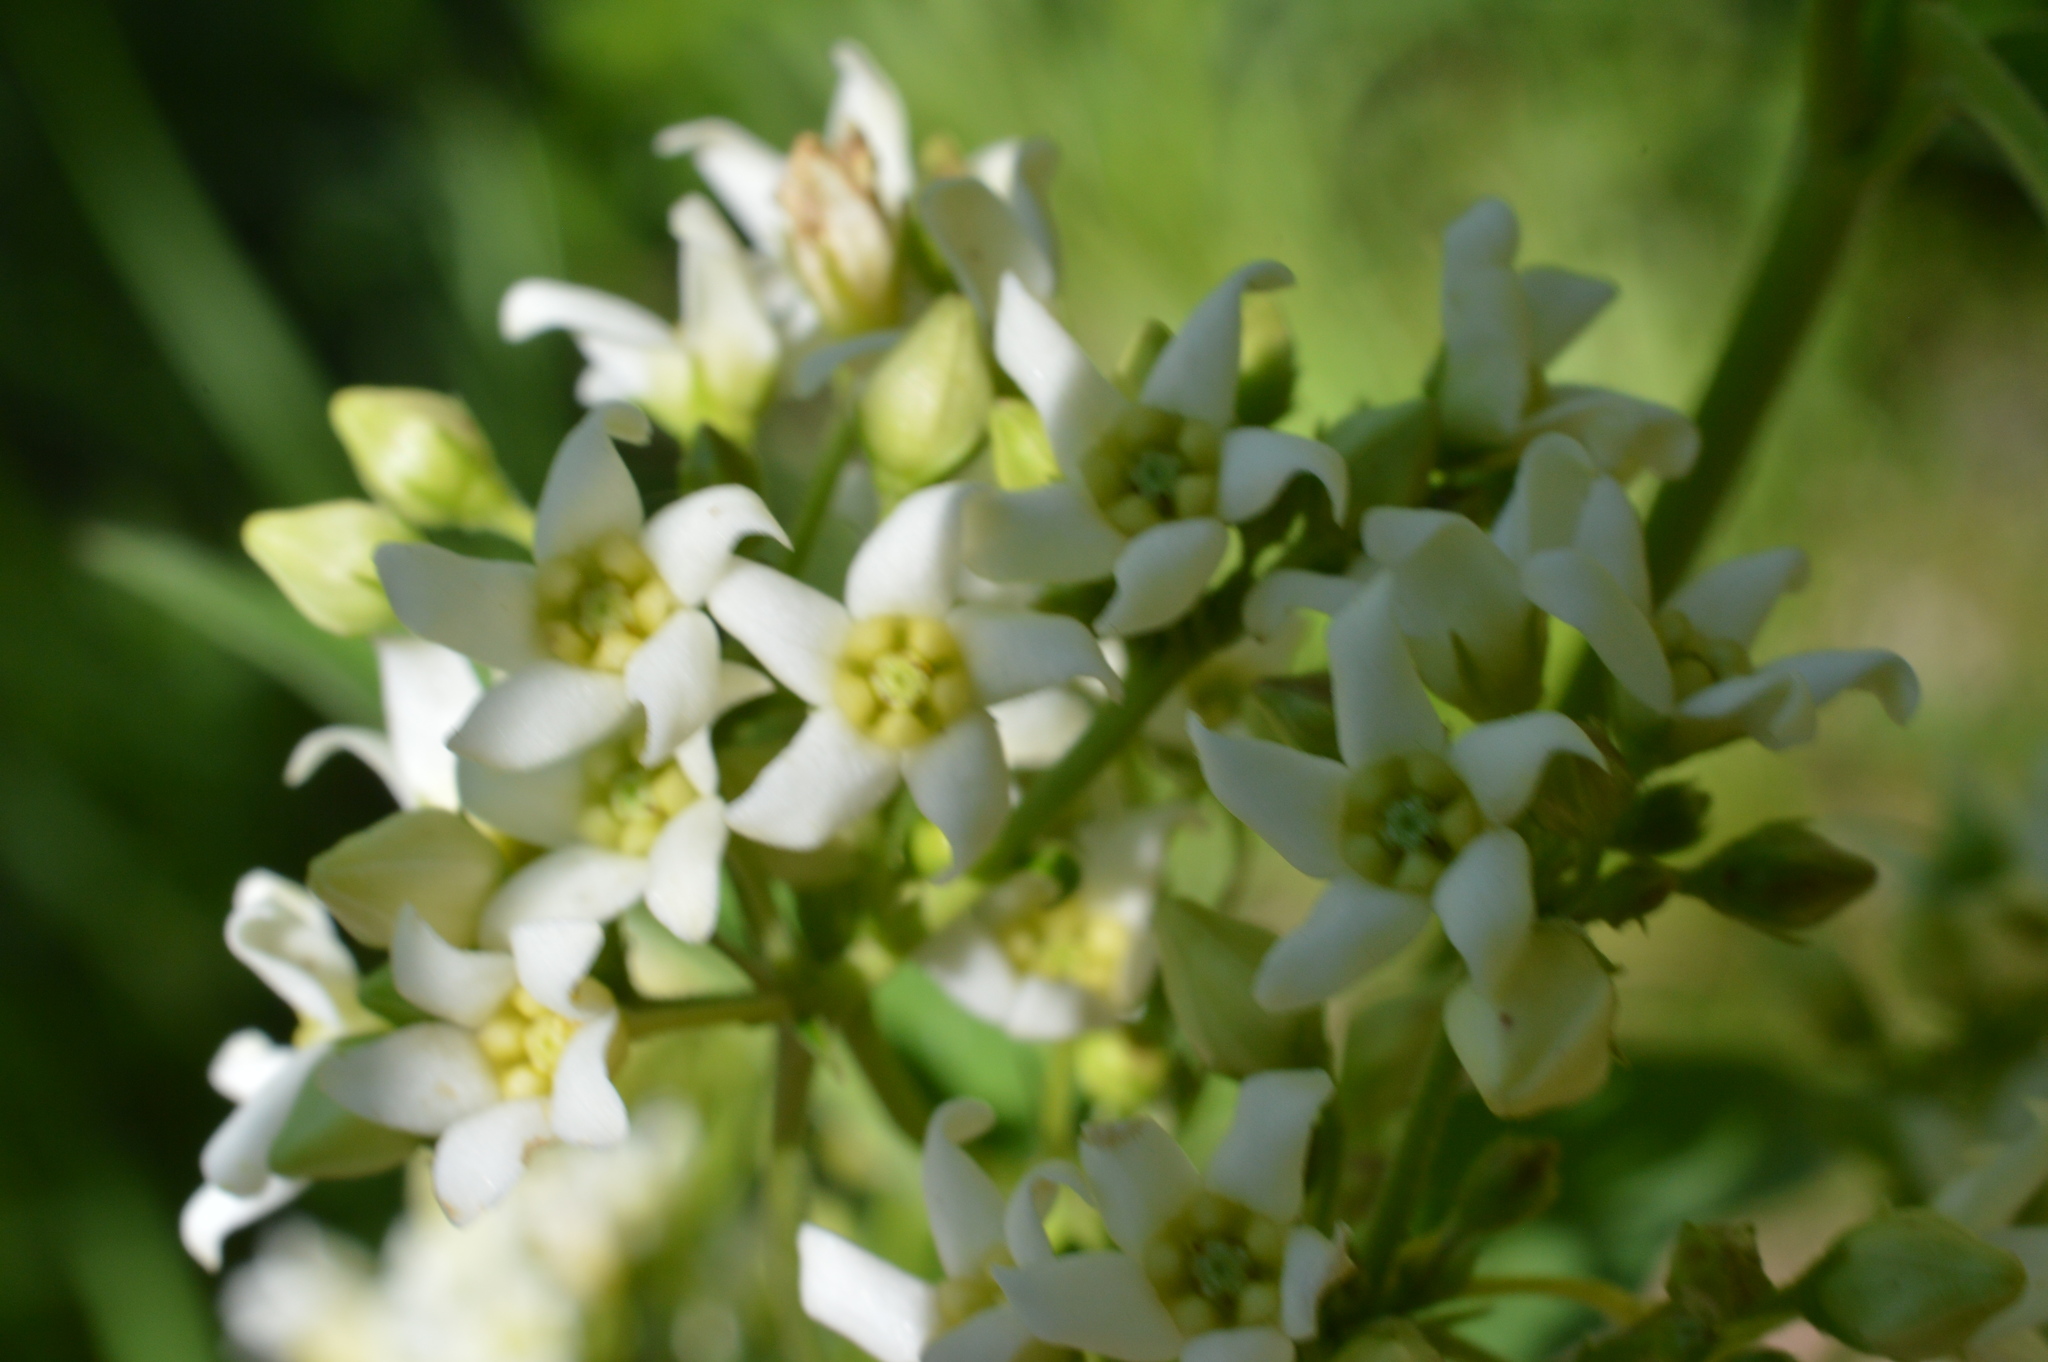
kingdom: Plantae
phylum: Tracheophyta
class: Magnoliopsida
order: Gentianales
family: Apocynaceae
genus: Vincetoxicum
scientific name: Vincetoxicum hirundinaria
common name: White swallowwort
